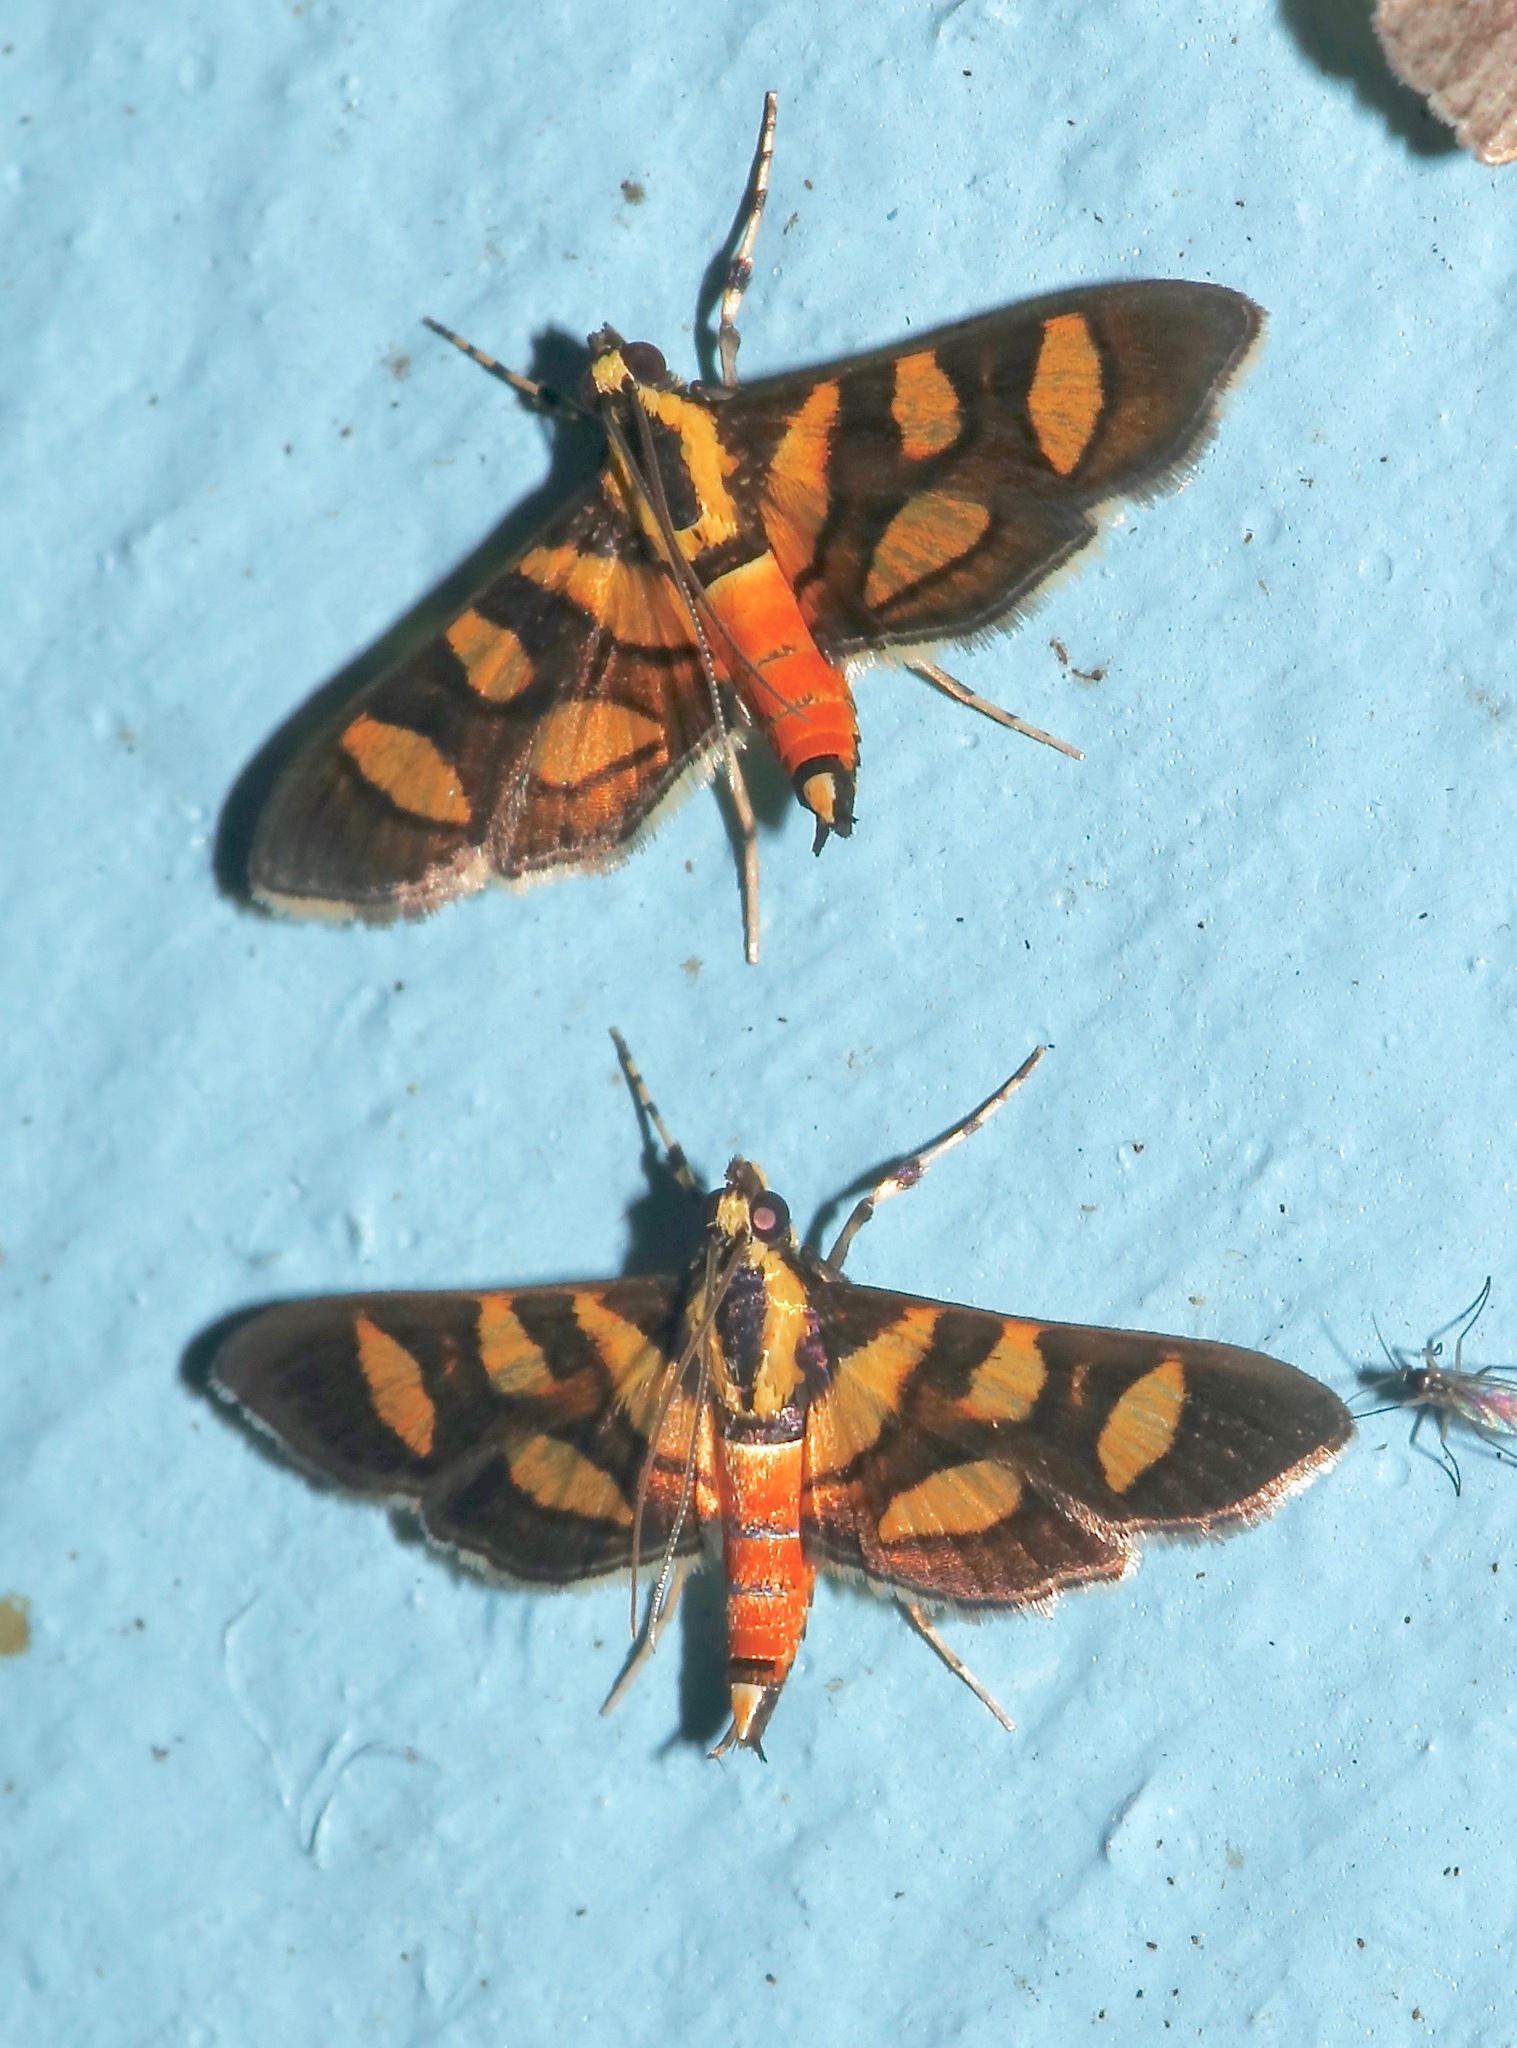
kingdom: Animalia
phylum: Arthropoda
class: Insecta
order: Lepidoptera
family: Crambidae
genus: Syngamia
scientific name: Syngamia florella
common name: Orange-spotted flower moth
